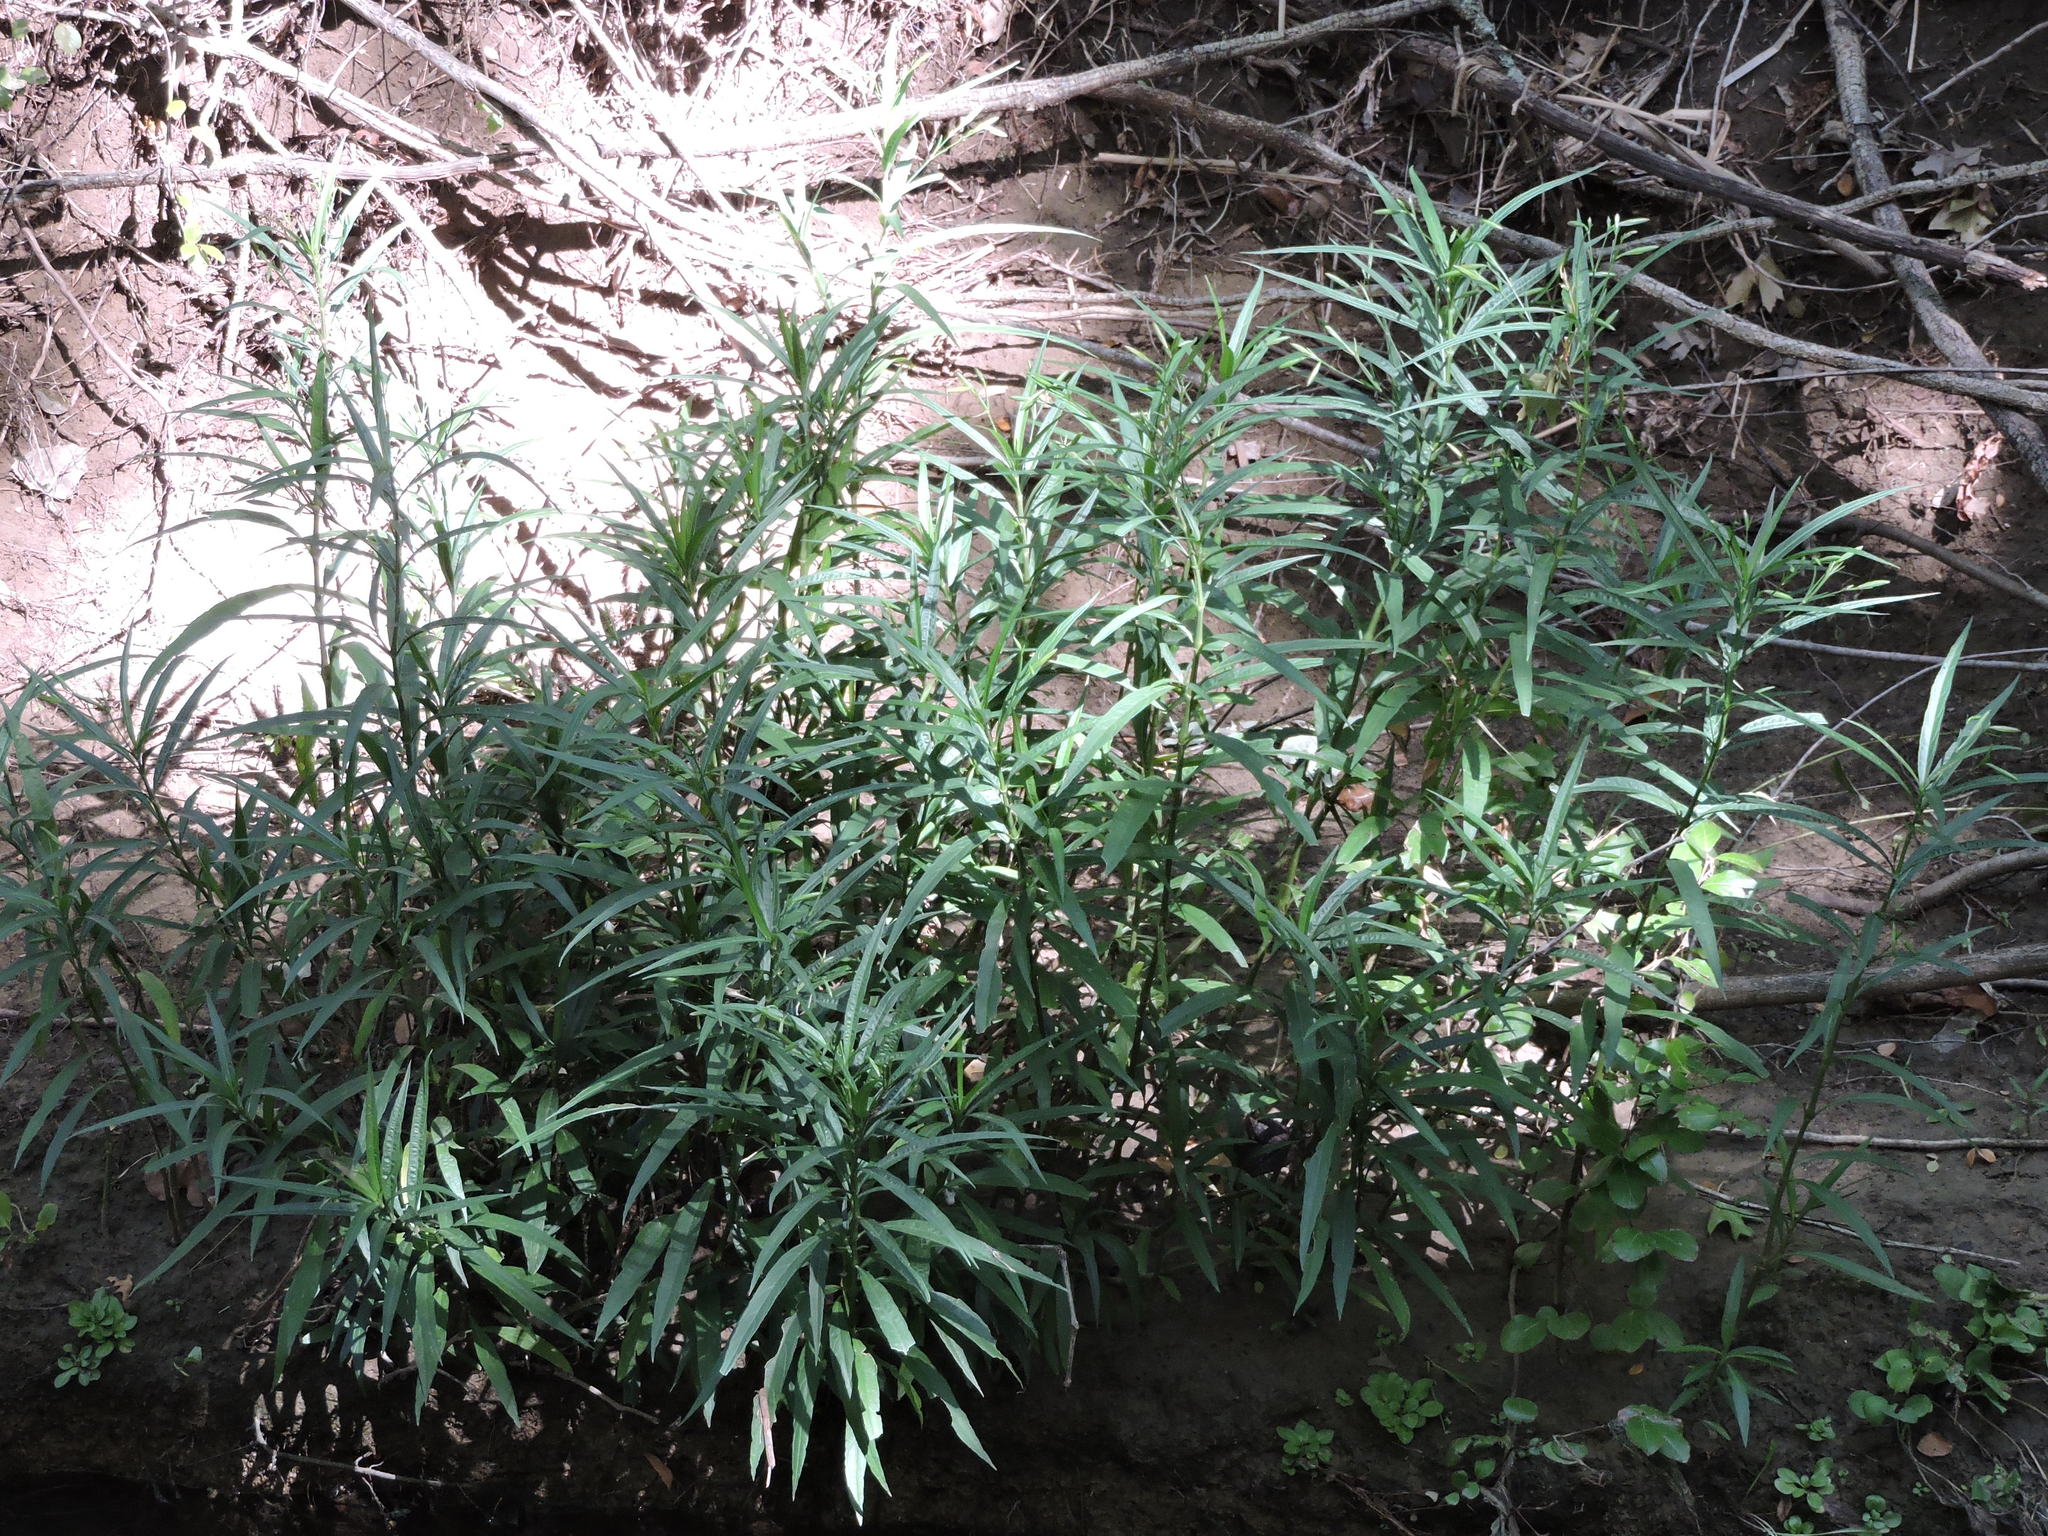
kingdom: Plantae
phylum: Tracheophyta
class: Magnoliopsida
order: Lamiales
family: Acanthaceae
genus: Ruellia
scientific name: Ruellia simplex
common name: Softseed wild petunia
